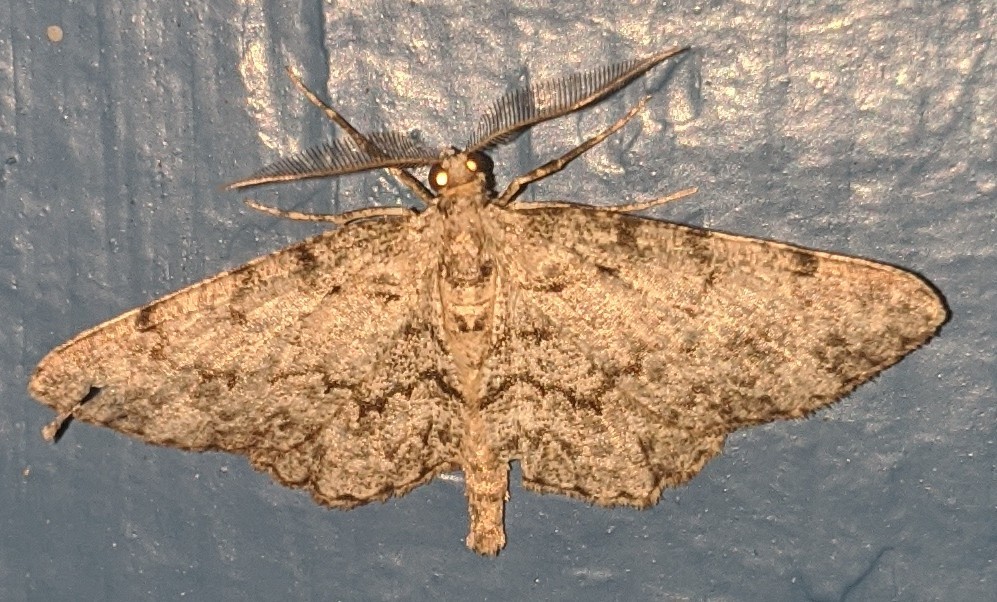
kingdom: Animalia
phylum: Arthropoda
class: Insecta
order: Lepidoptera
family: Geometridae
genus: Protoboarmia
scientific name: Protoboarmia porcelaria
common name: Porcelain gray
